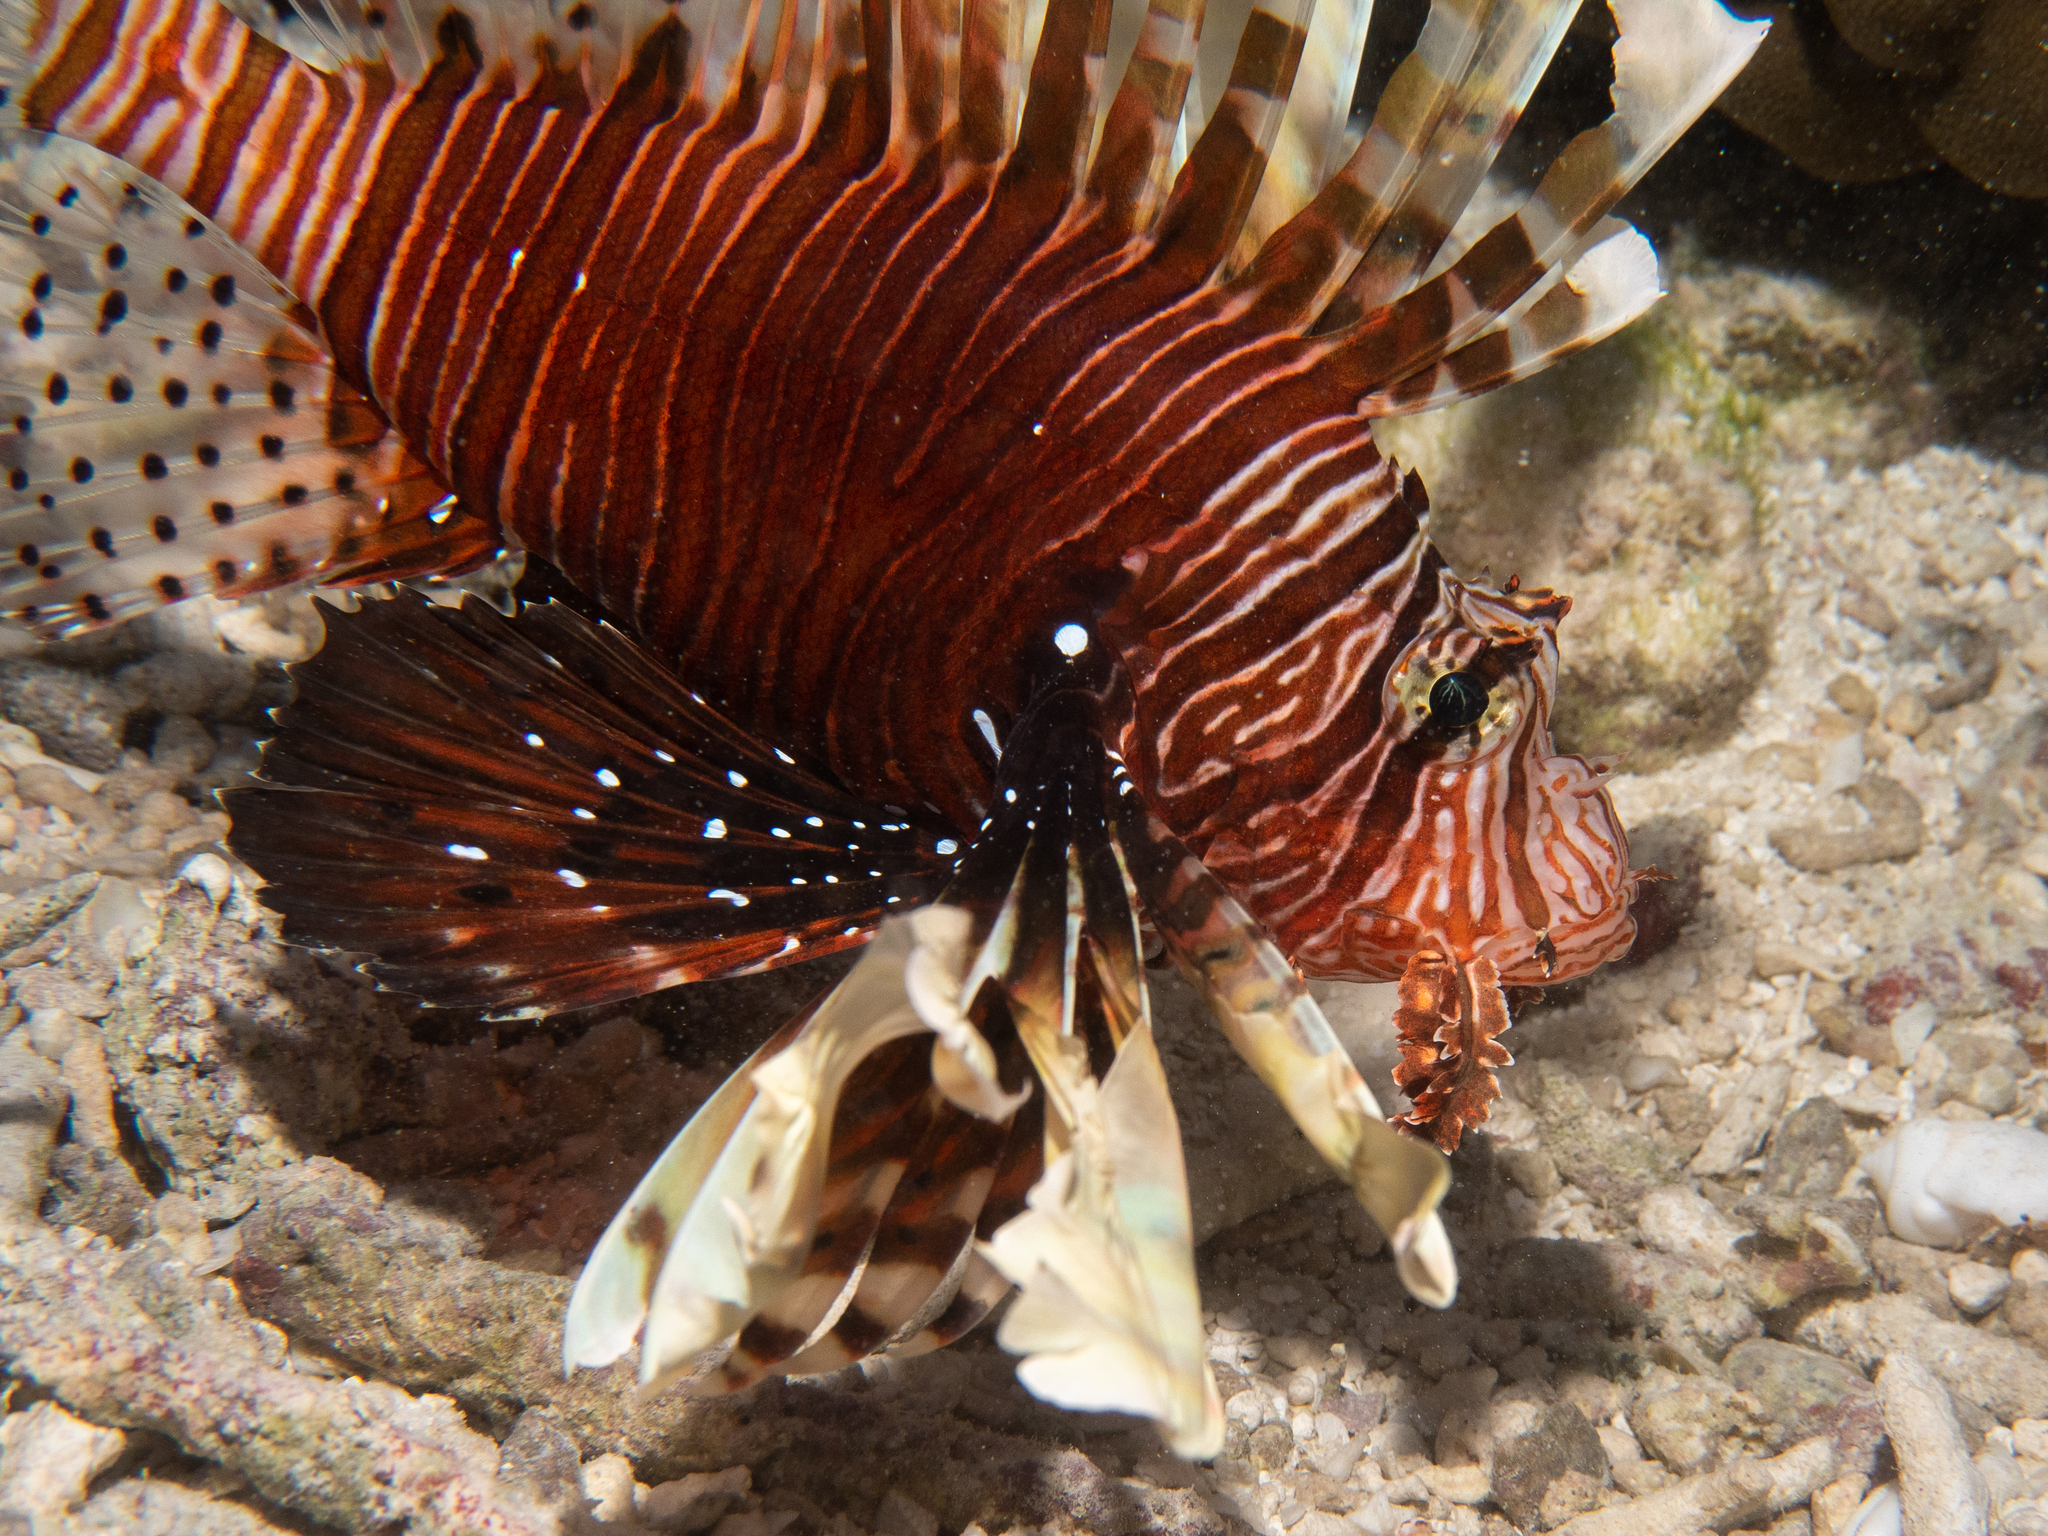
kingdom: Animalia
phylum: Chordata
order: Scorpaeniformes
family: Scorpaenidae
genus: Pterois
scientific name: Pterois miles
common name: Devil firefish
